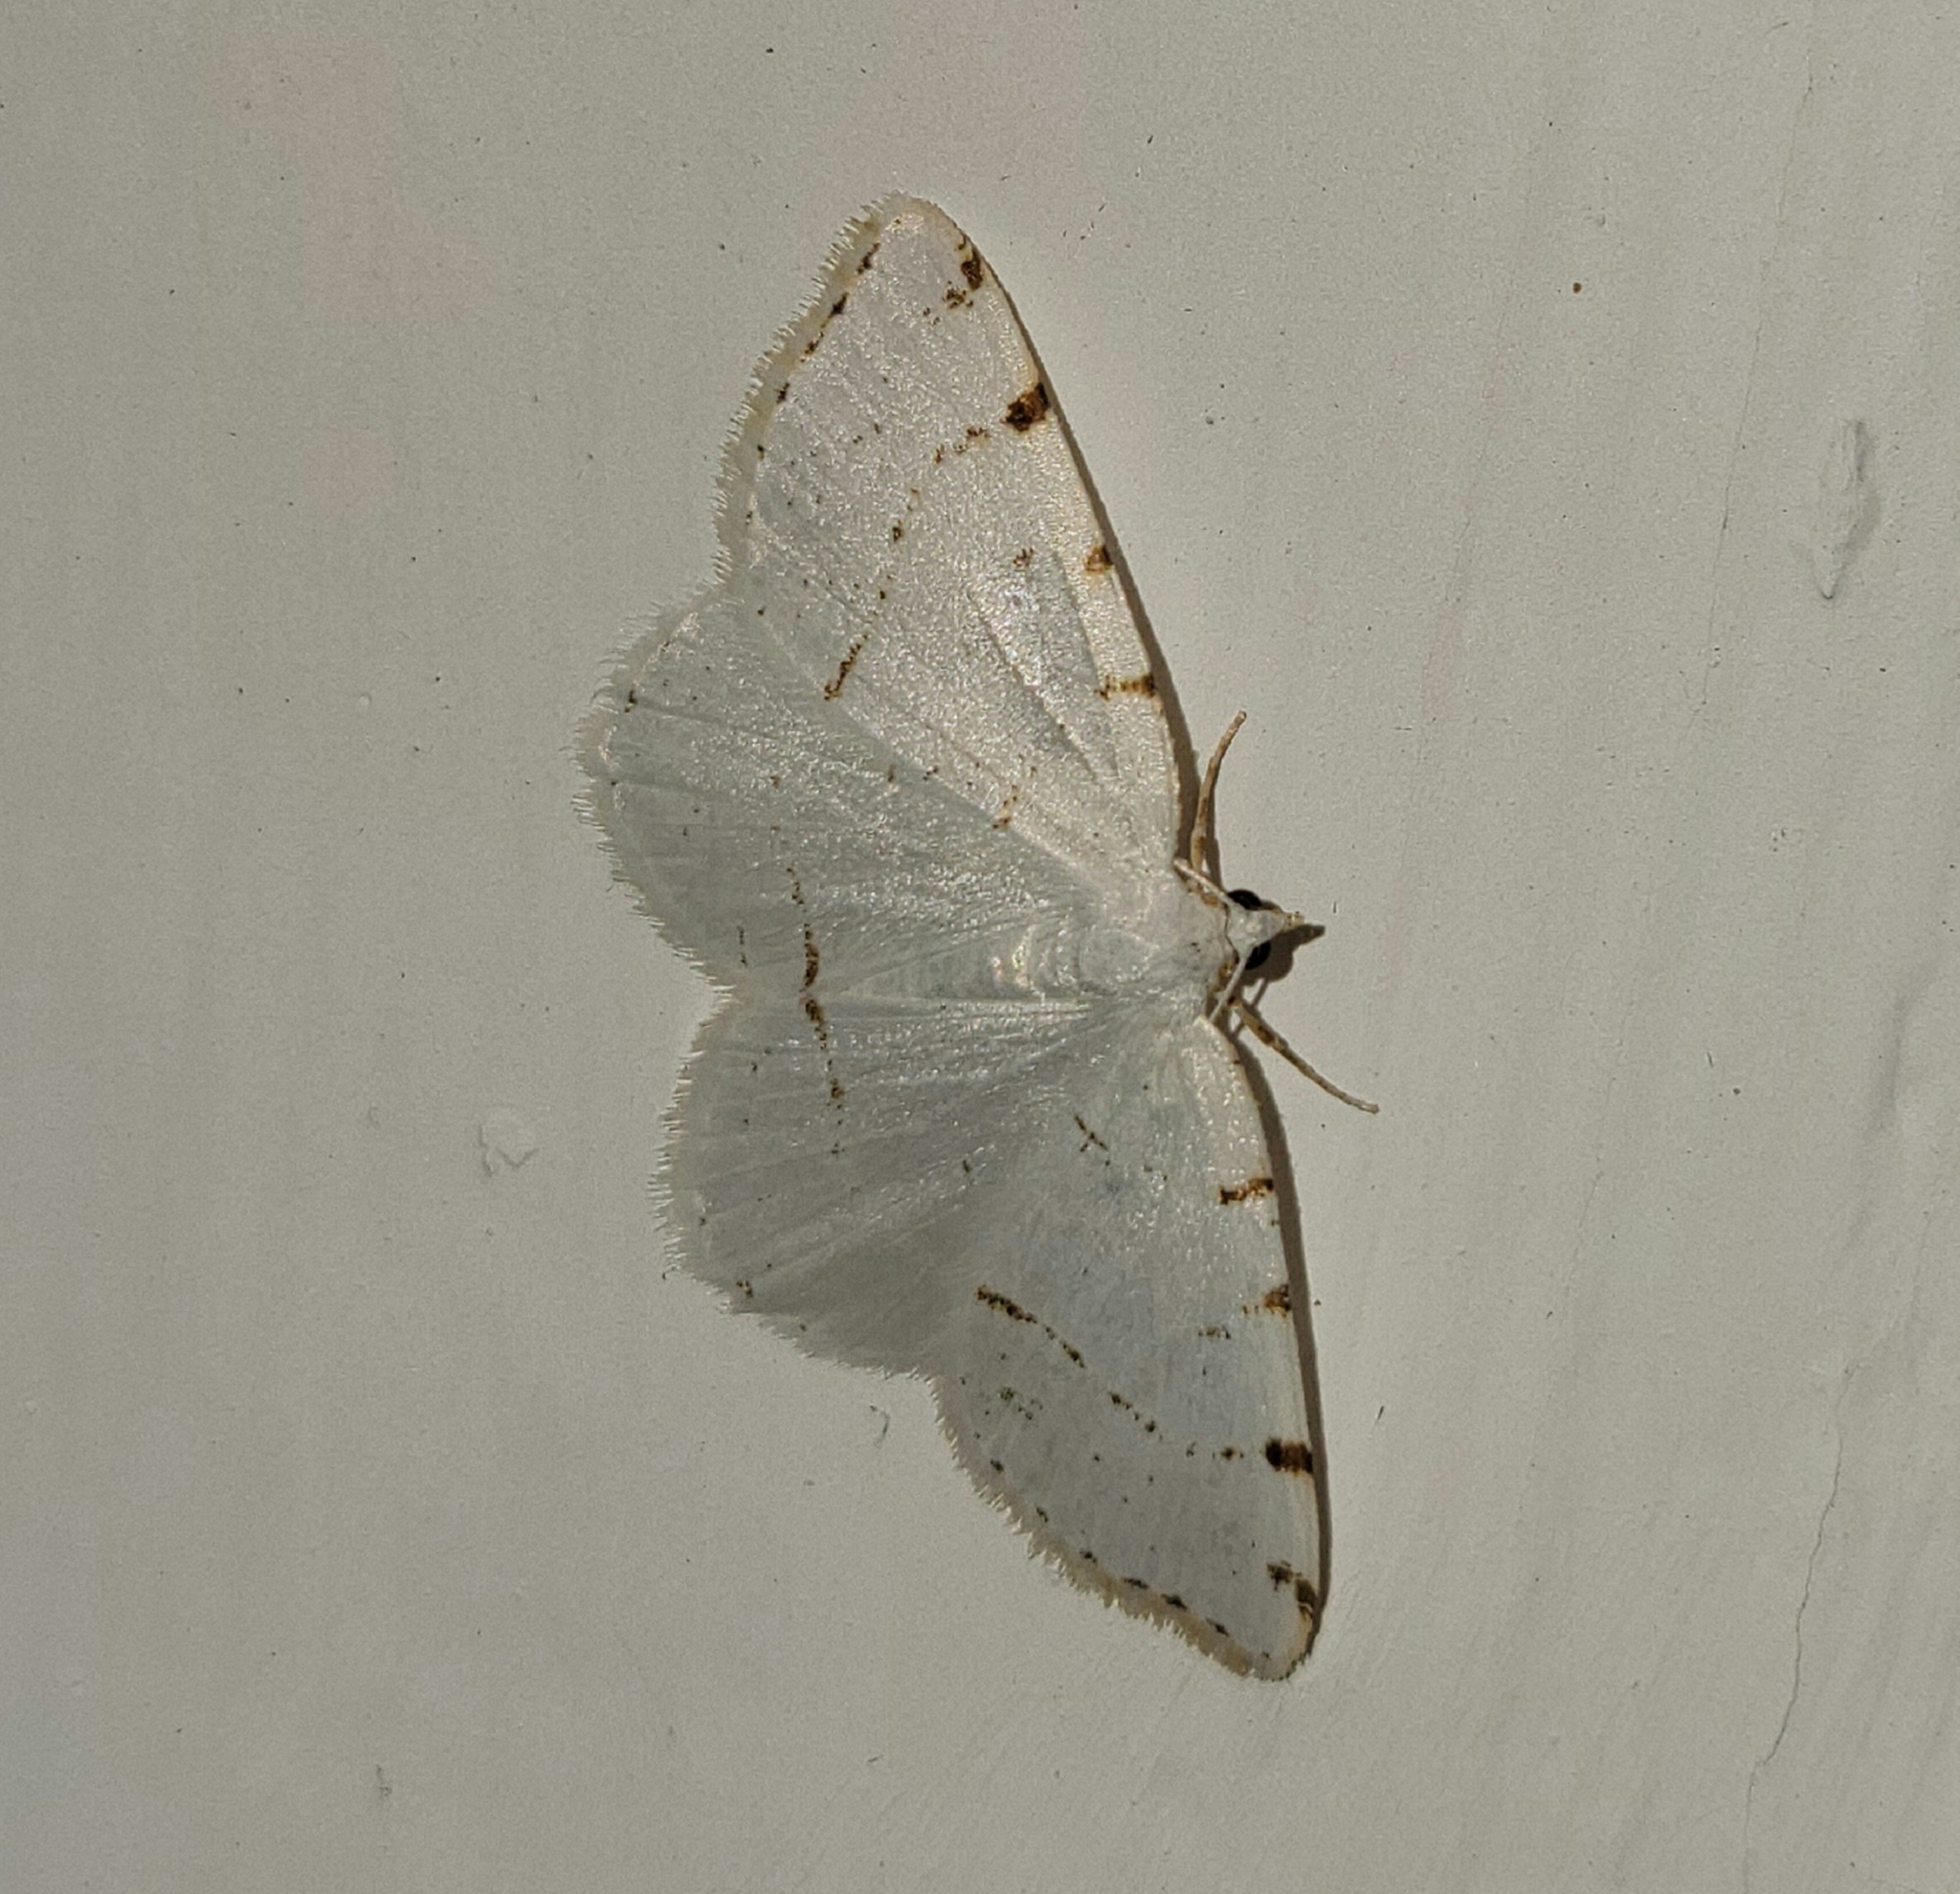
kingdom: Animalia
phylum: Arthropoda
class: Insecta
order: Lepidoptera
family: Geometridae
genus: Macaria
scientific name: Macaria pustularia
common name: Lesser maple spanworm moth
